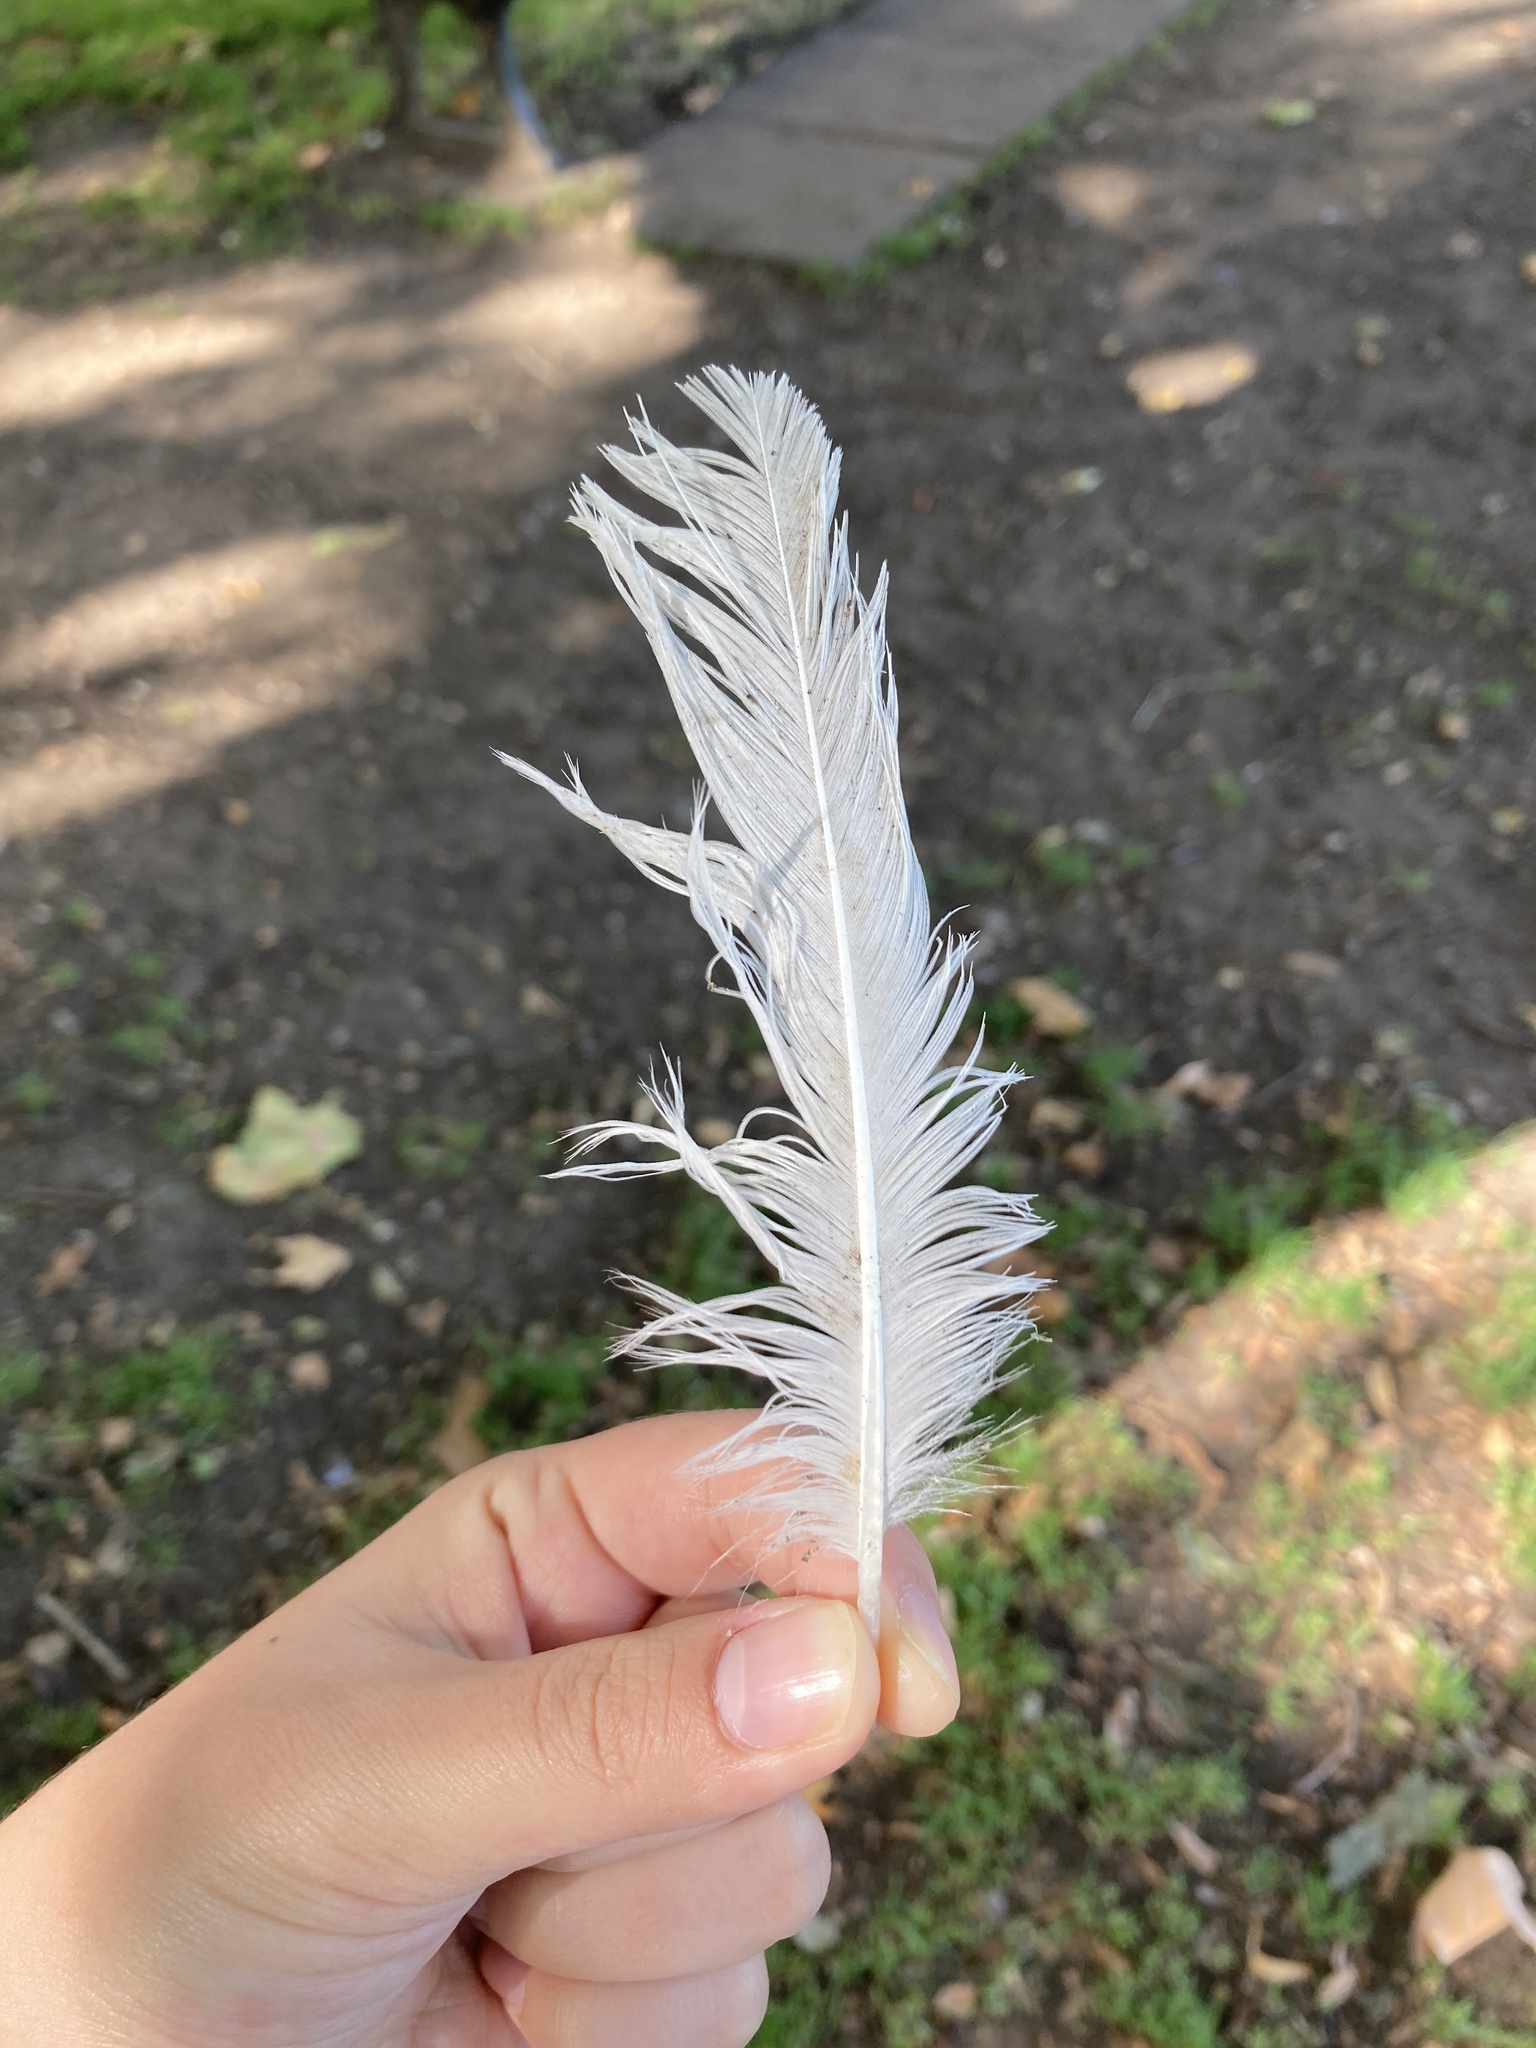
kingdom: Animalia
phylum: Chordata
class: Aves
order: Charadriiformes
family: Laridae
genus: Chroicocephalus
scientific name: Chroicocephalus ridibundus
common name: Black-headed gull
